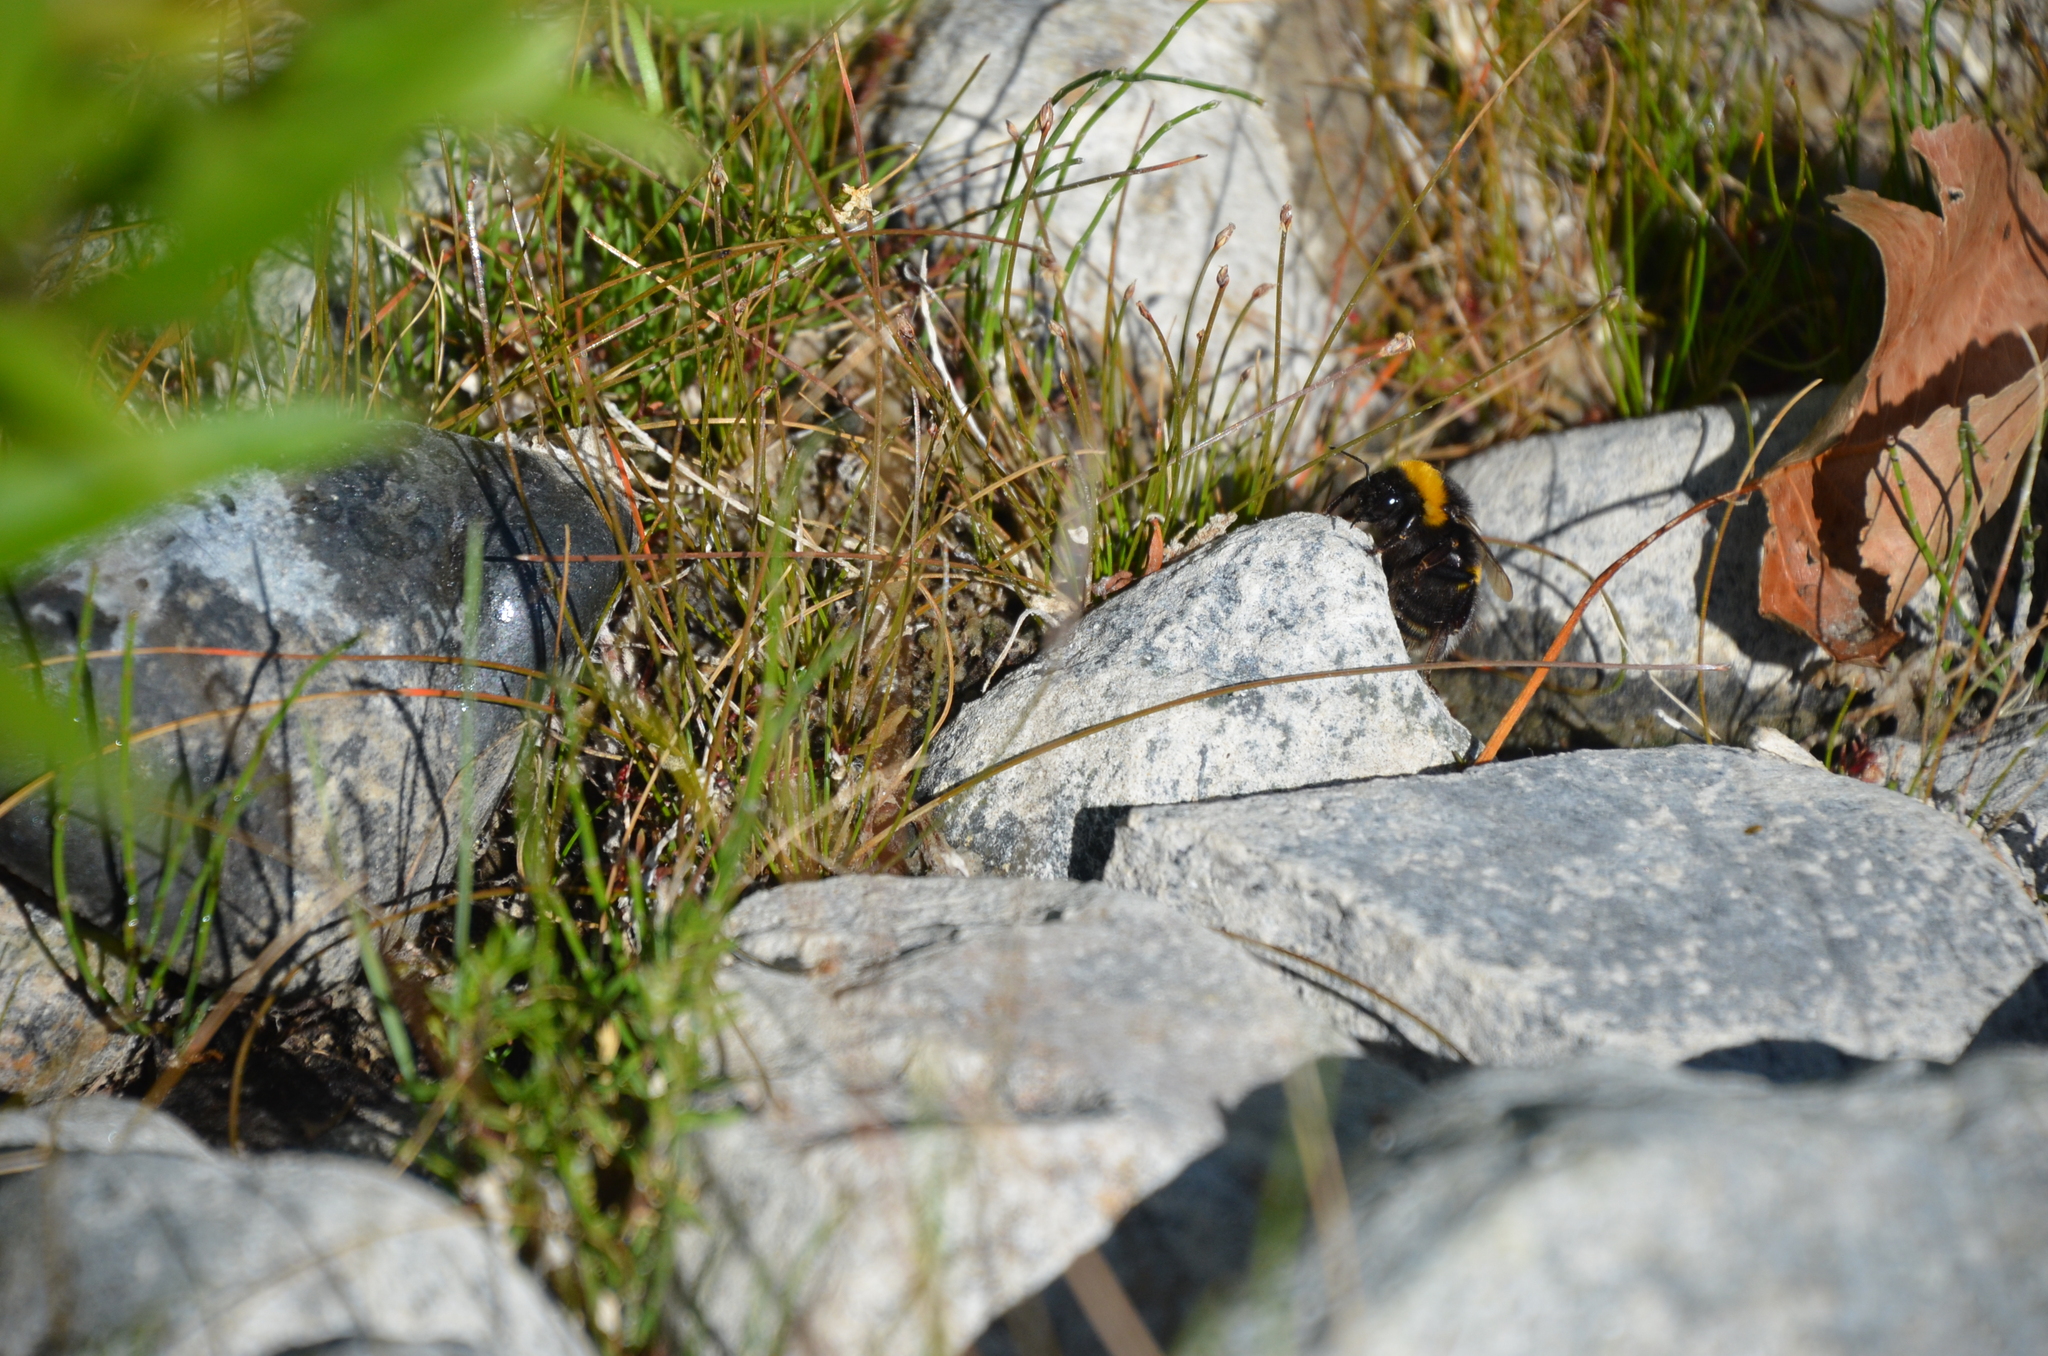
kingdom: Animalia
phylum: Arthropoda
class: Insecta
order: Hymenoptera
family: Apidae
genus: Bombus
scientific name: Bombus terrestris
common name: Buff-tailed bumblebee
